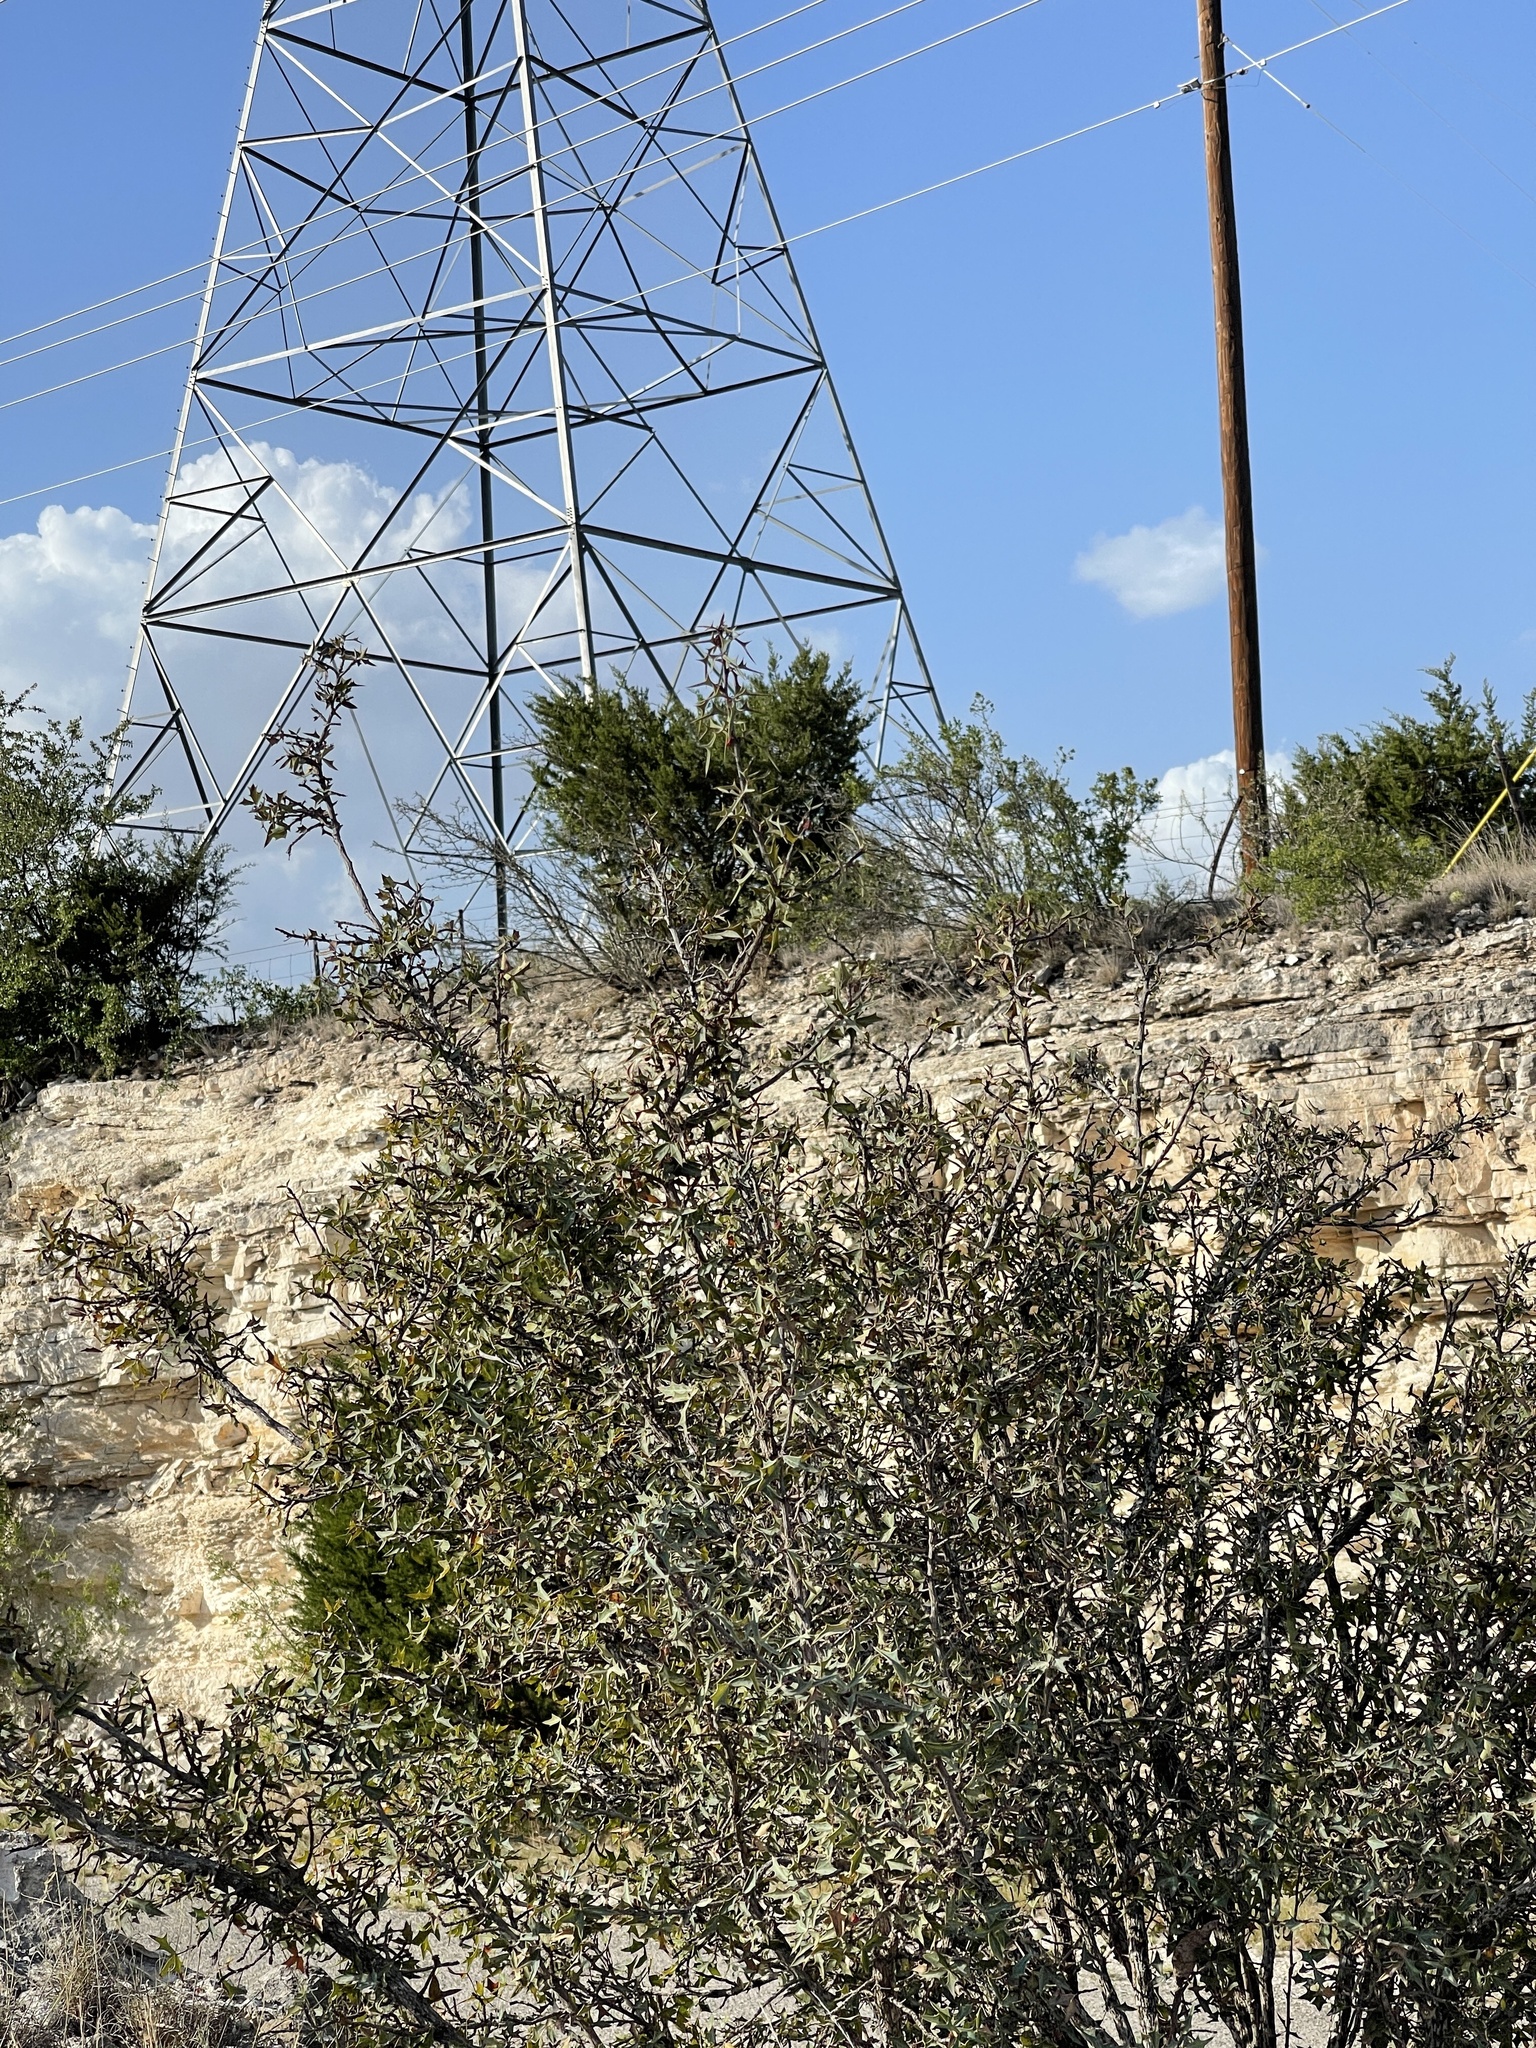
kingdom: Plantae
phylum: Tracheophyta
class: Magnoliopsida
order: Ranunculales
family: Berberidaceae
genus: Alloberberis
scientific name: Alloberberis trifoliolata
